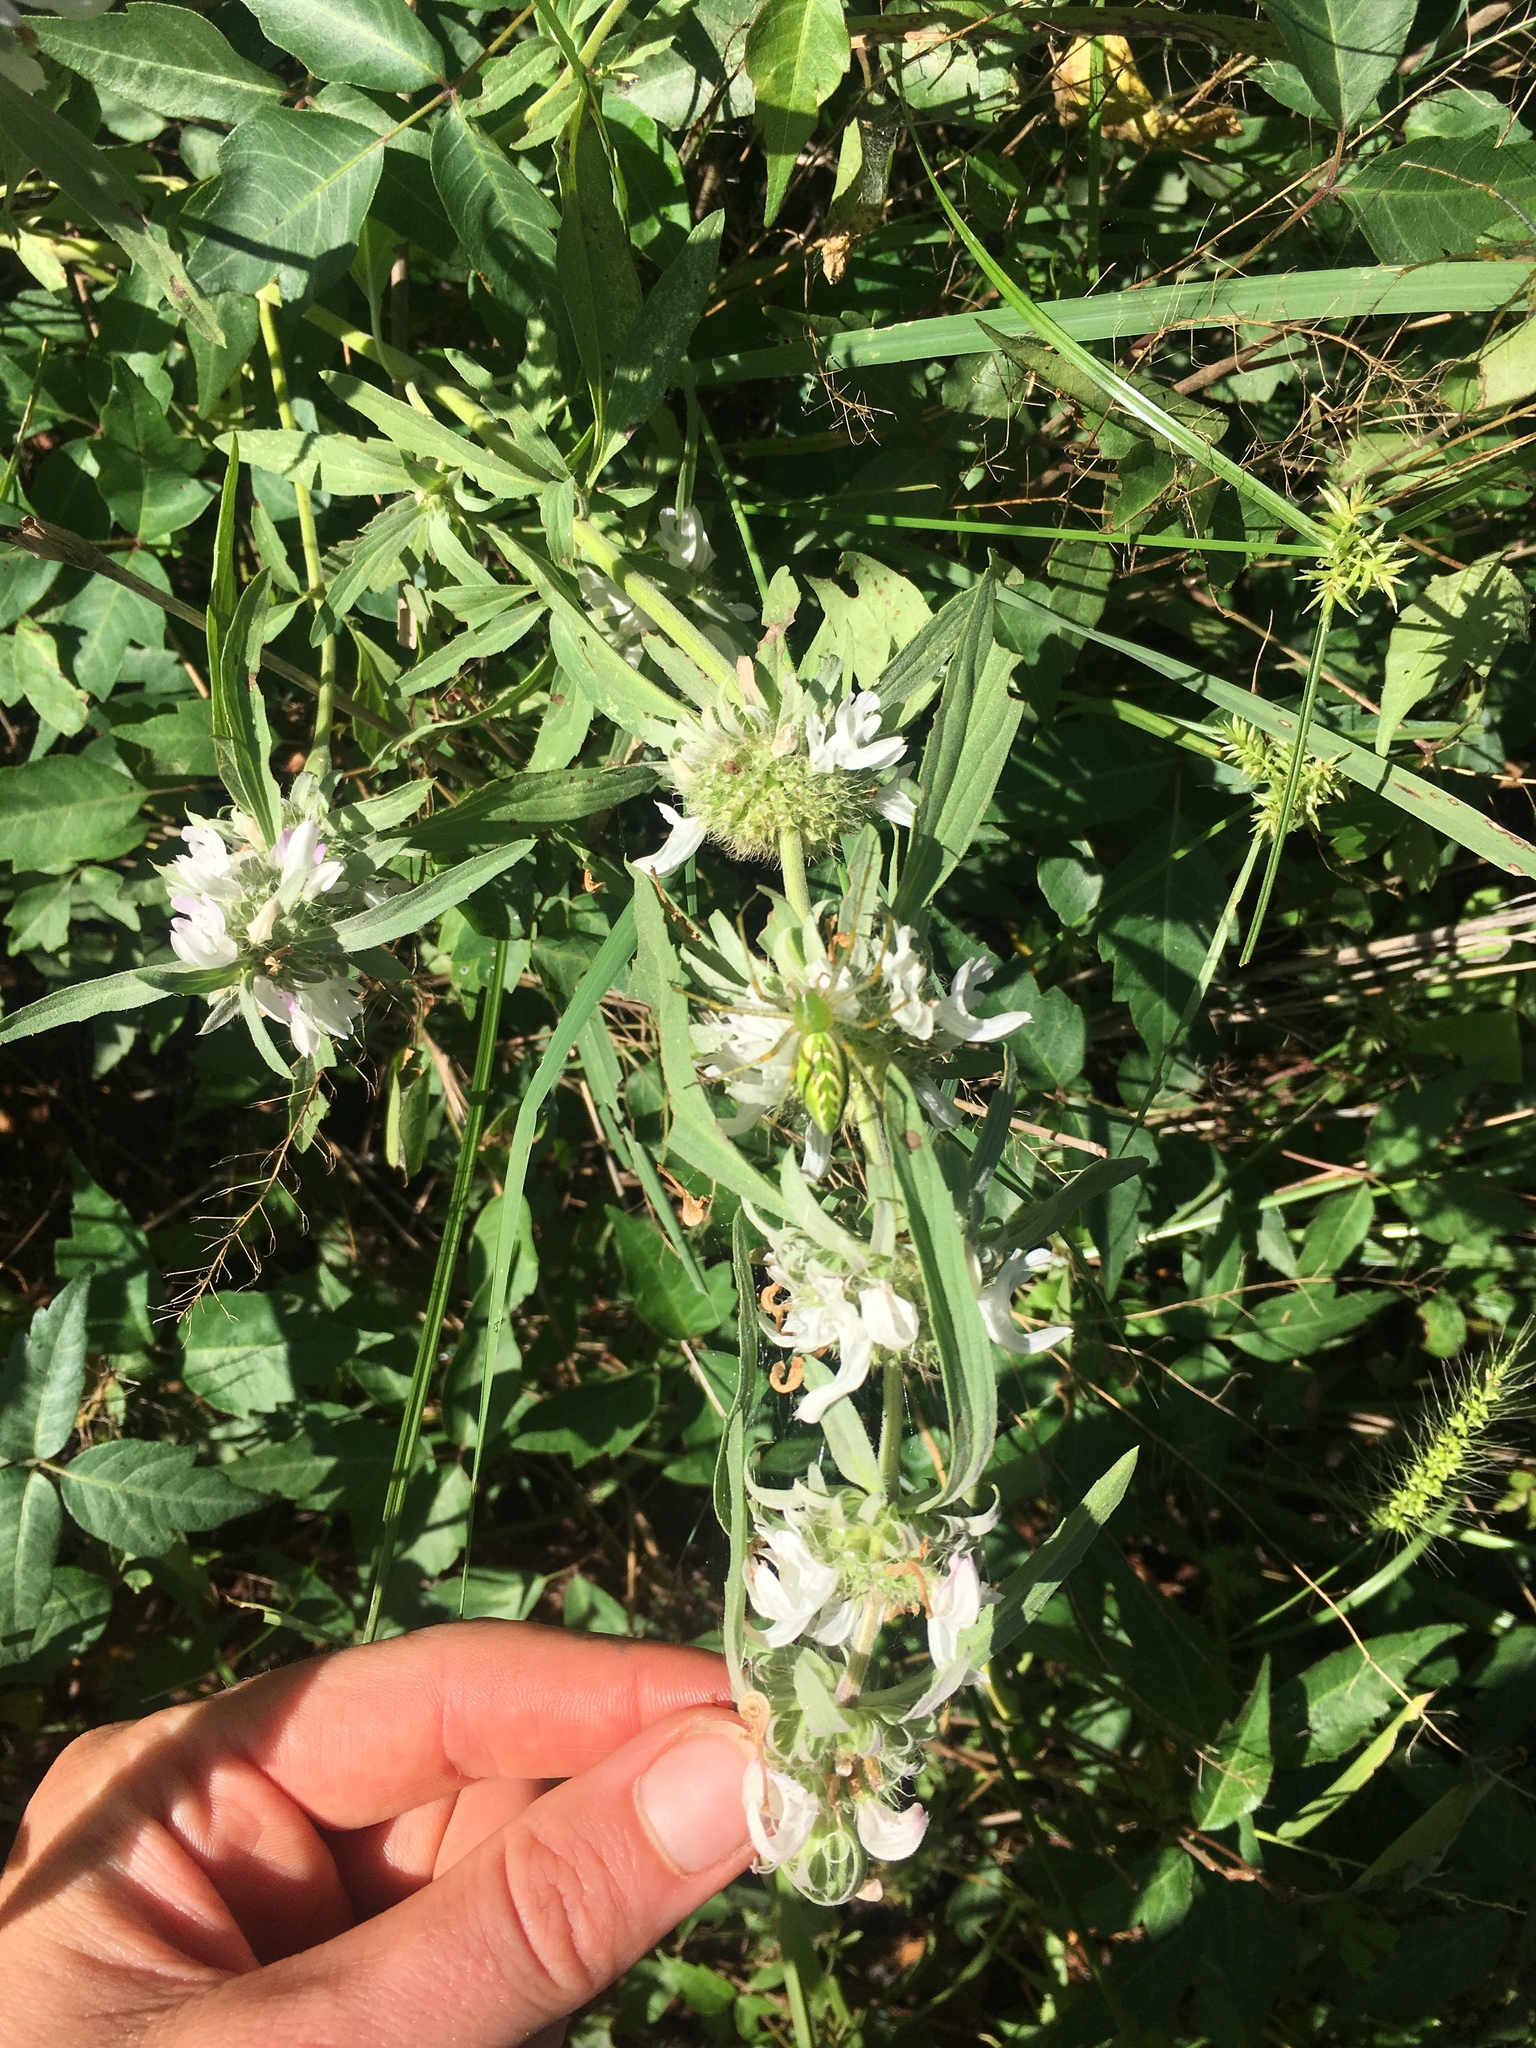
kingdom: Plantae
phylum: Tracheophyta
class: Magnoliopsida
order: Lamiales
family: Lamiaceae
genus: Monarda
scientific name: Monarda citriodora
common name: Lemon beebalm
